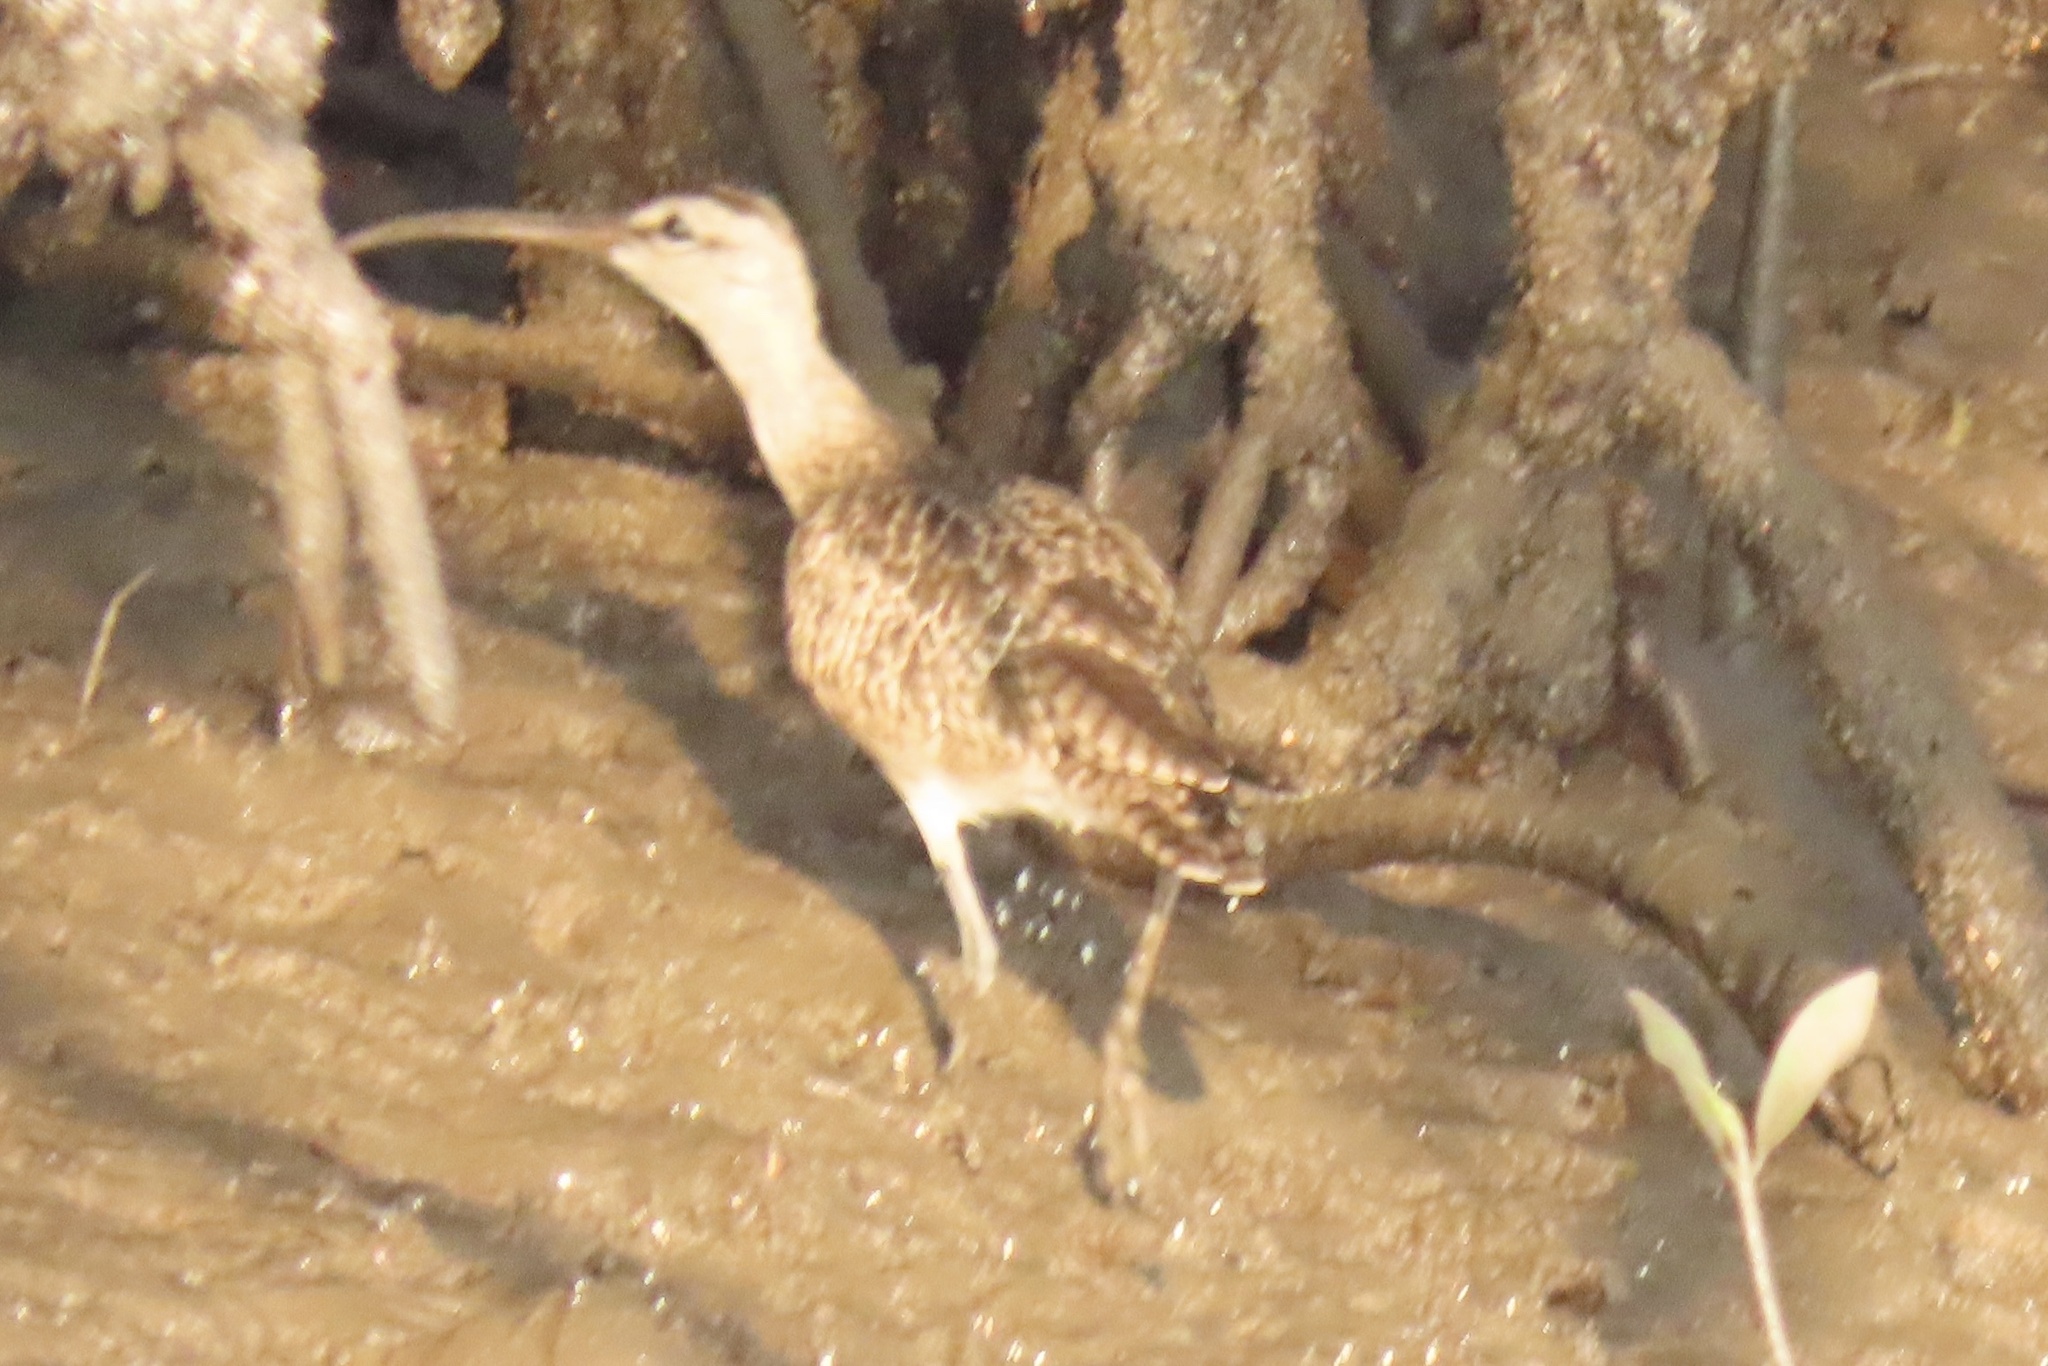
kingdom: Animalia
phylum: Chordata
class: Aves
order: Charadriiformes
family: Scolopacidae
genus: Numenius
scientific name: Numenius phaeopus
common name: Whimbrel
